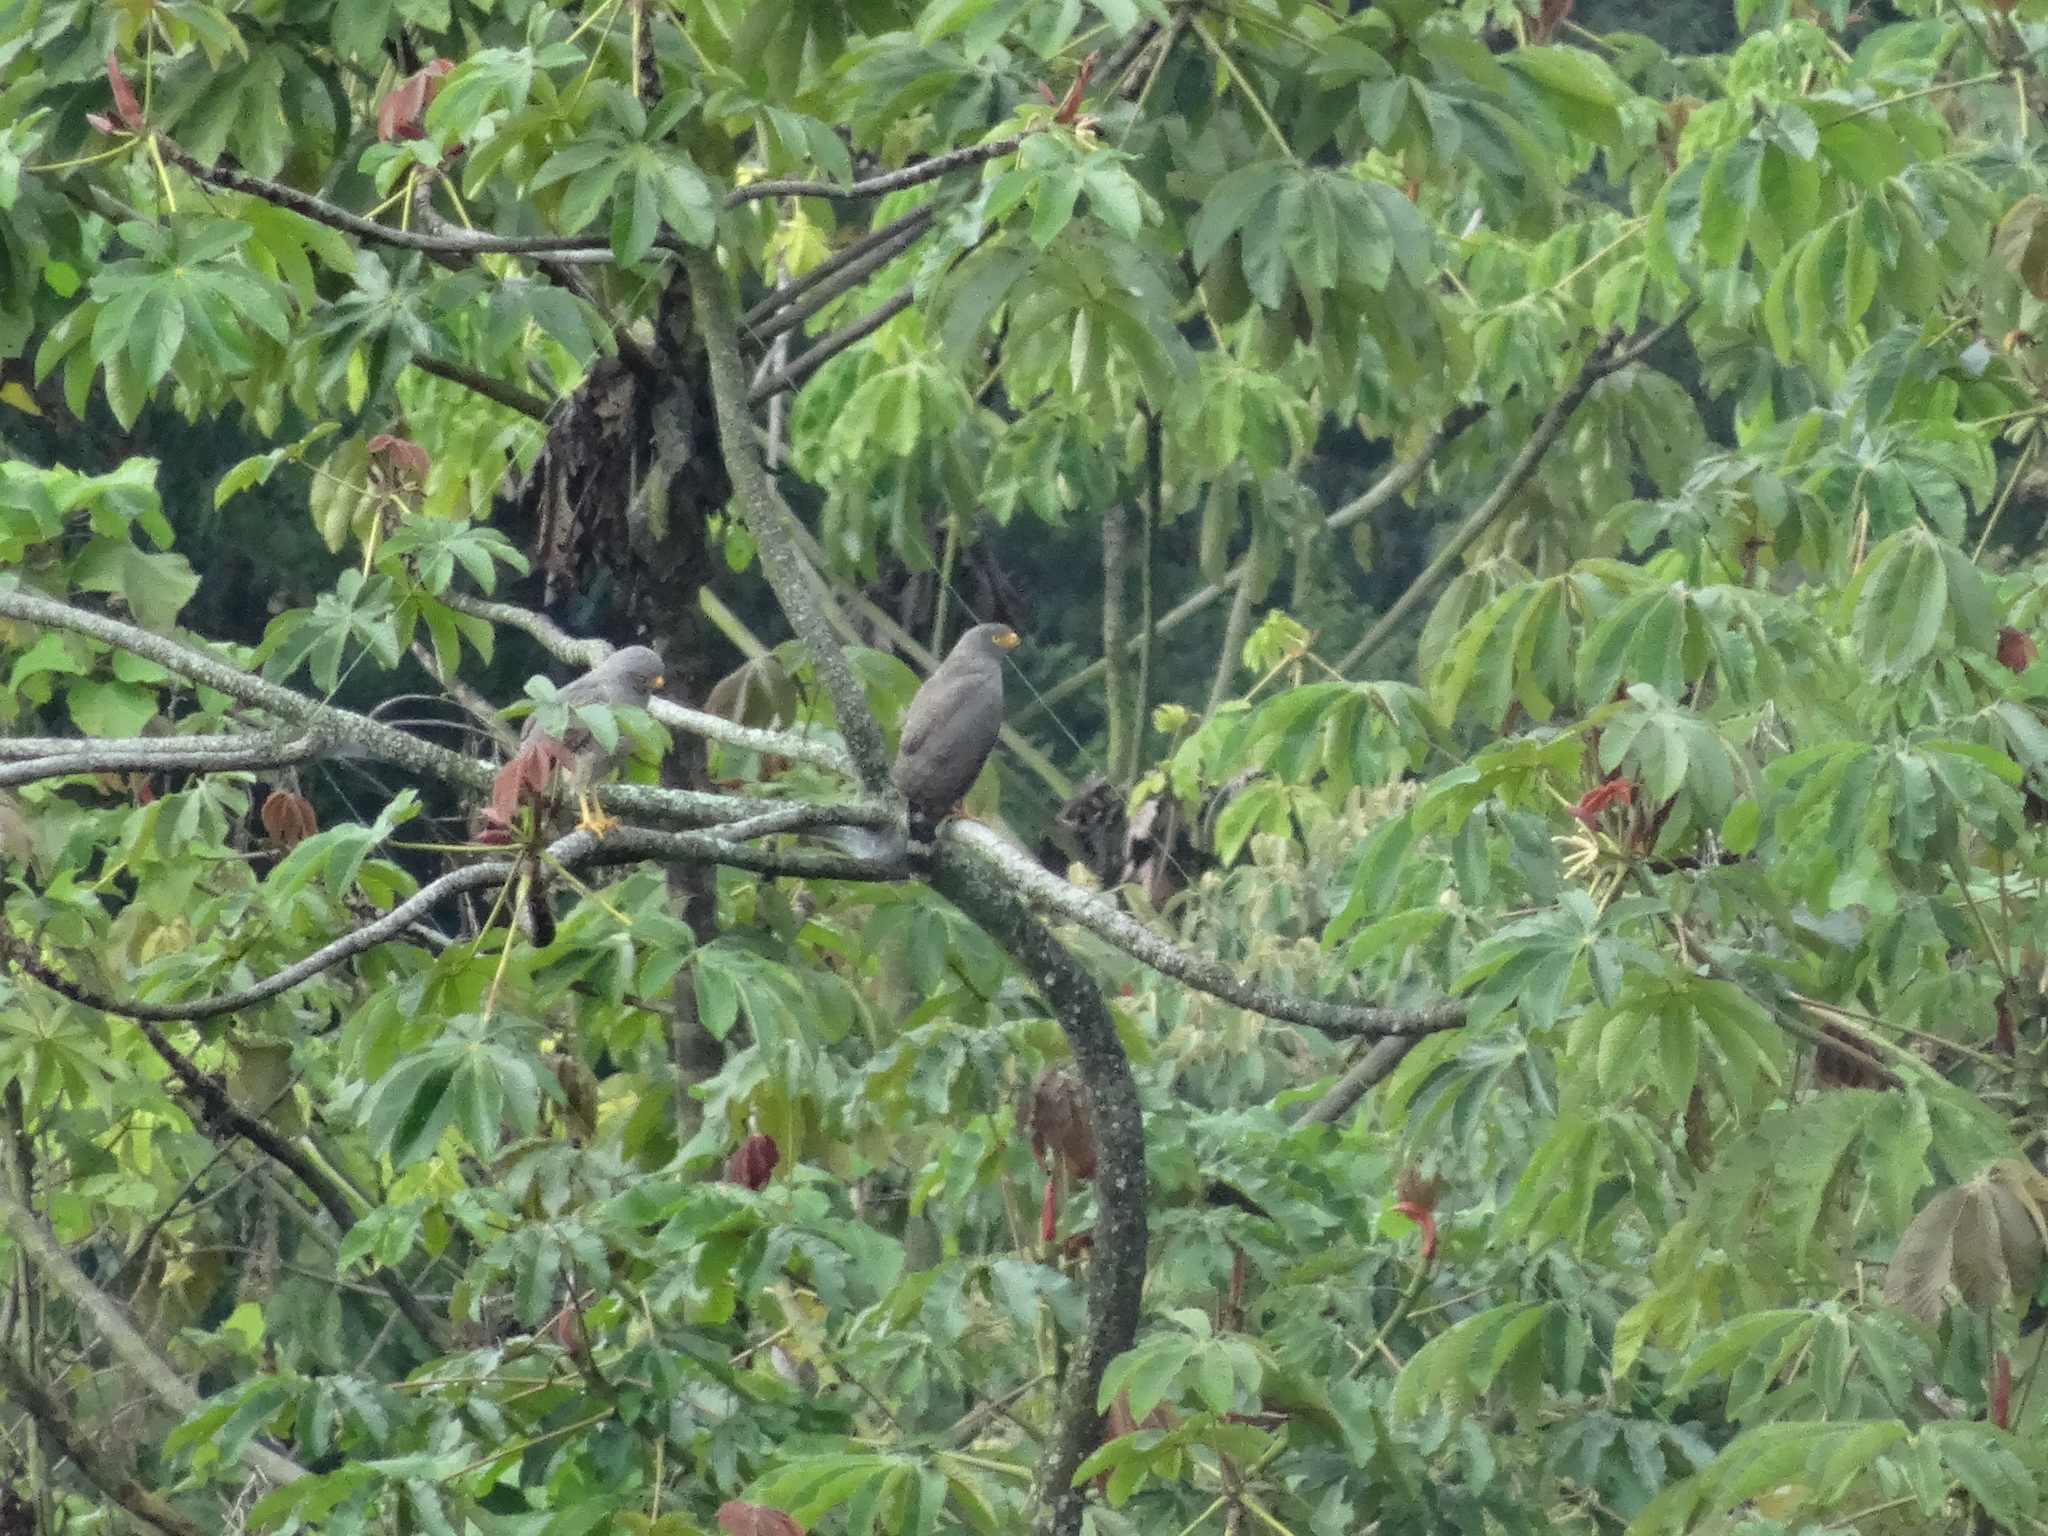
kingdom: Animalia
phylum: Chordata
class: Aves
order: Accipitriformes
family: Accipitridae
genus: Rupornis
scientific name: Rupornis magnirostris
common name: Roadside hawk
